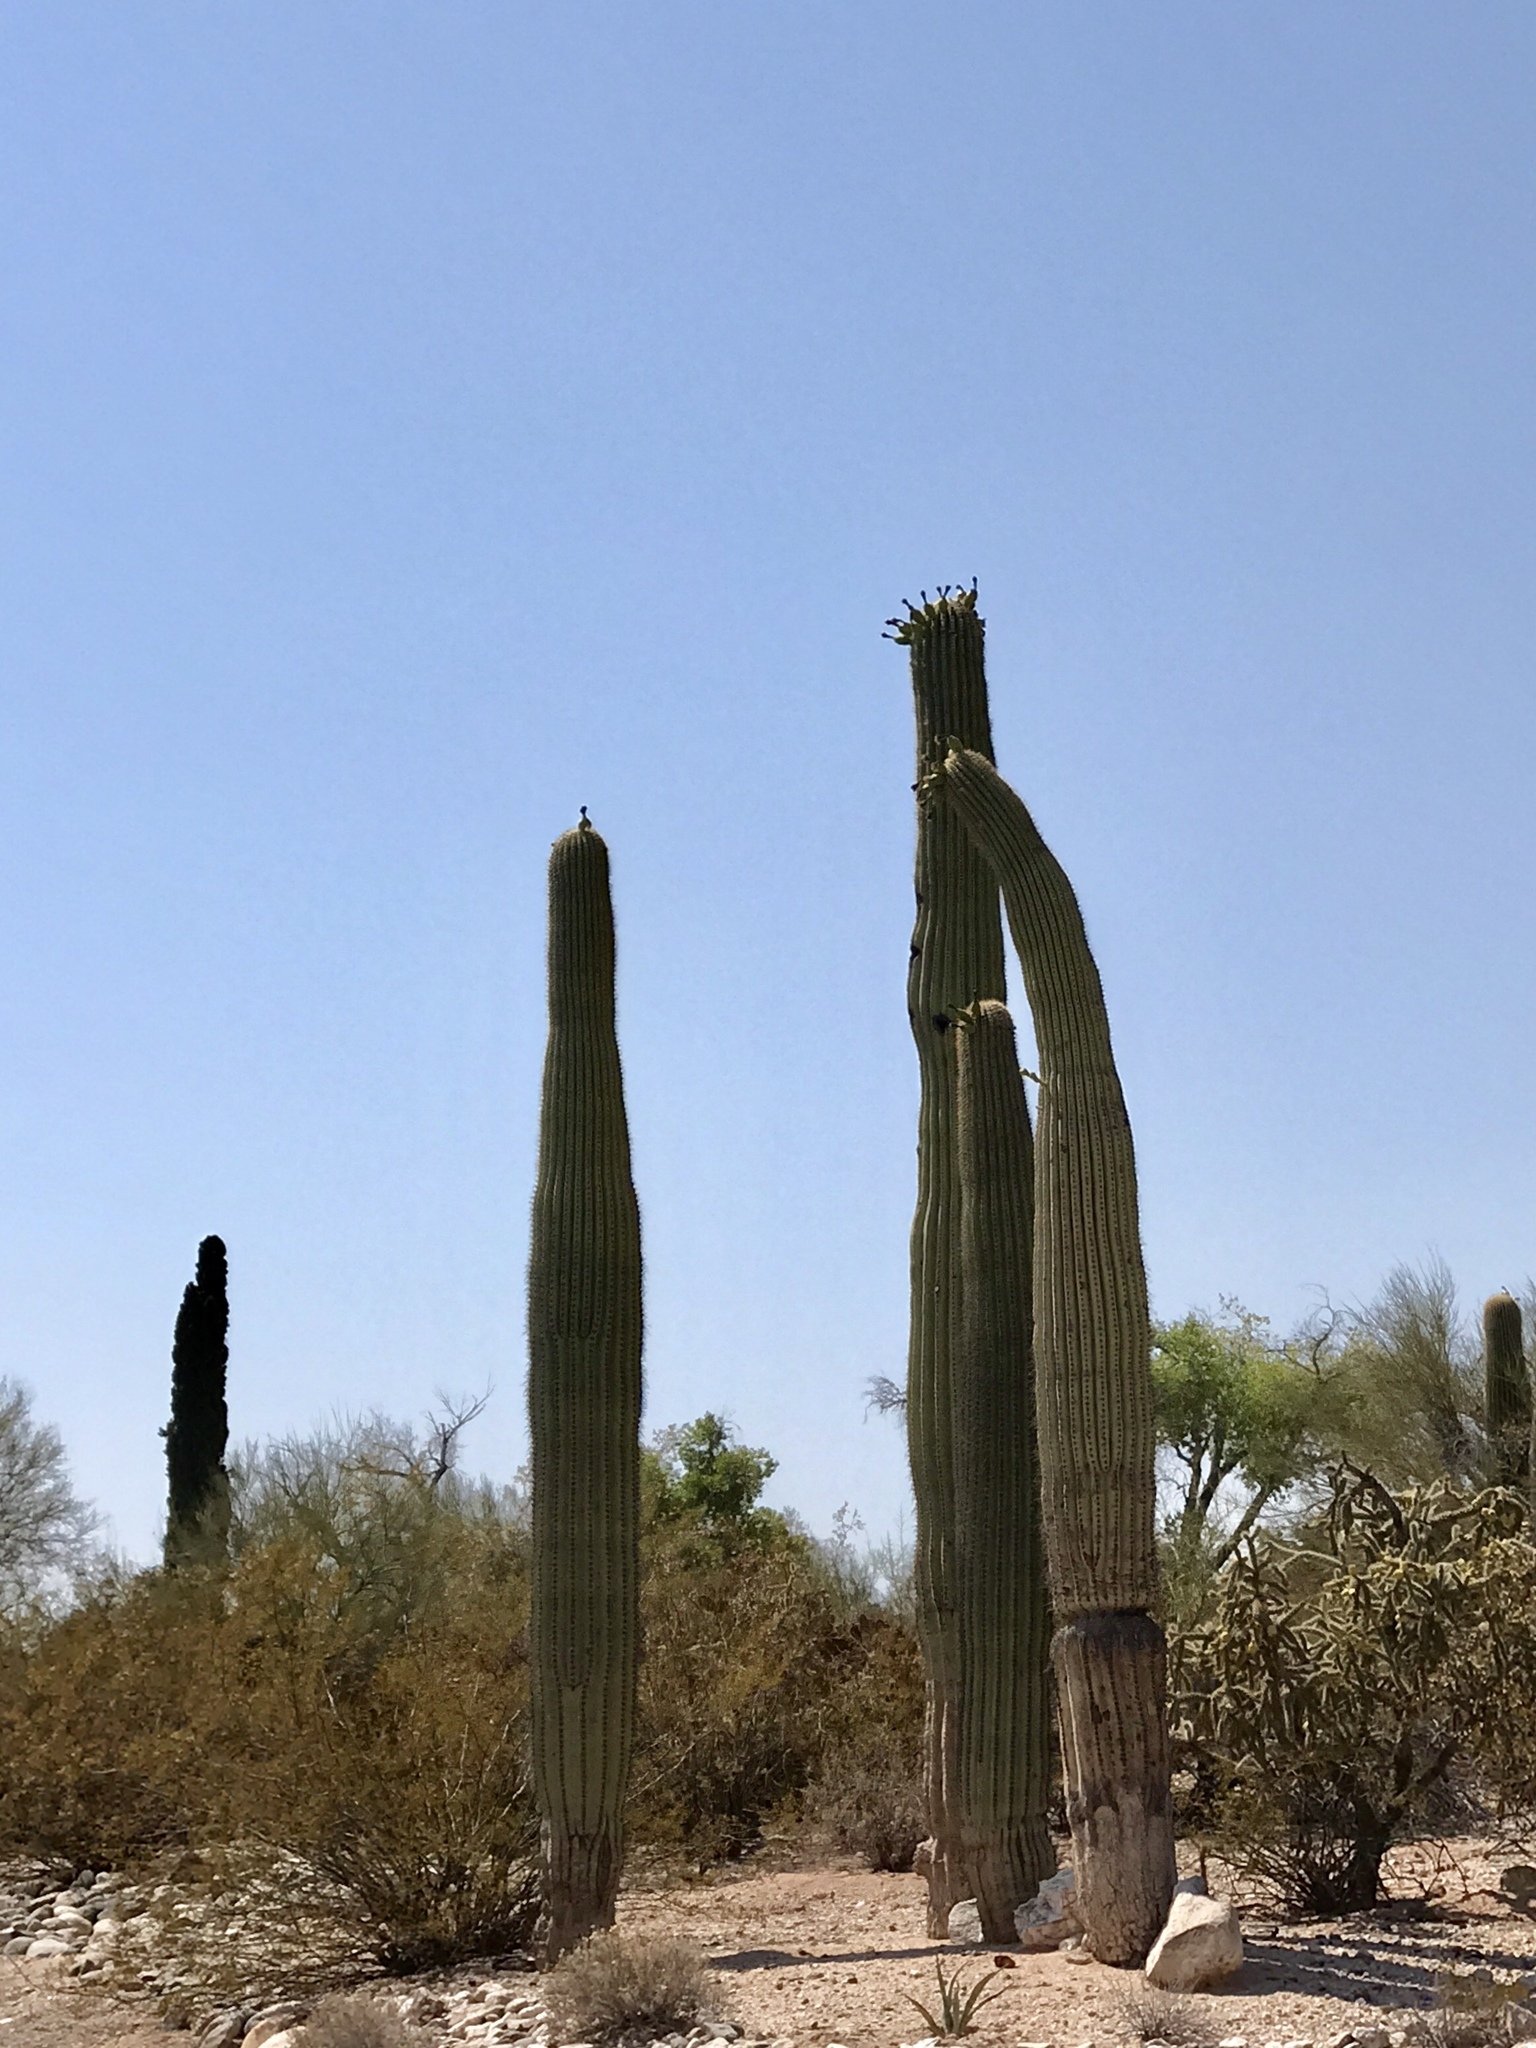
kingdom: Plantae
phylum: Tracheophyta
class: Magnoliopsida
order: Caryophyllales
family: Cactaceae
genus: Carnegiea
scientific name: Carnegiea gigantea
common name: Saguaro
